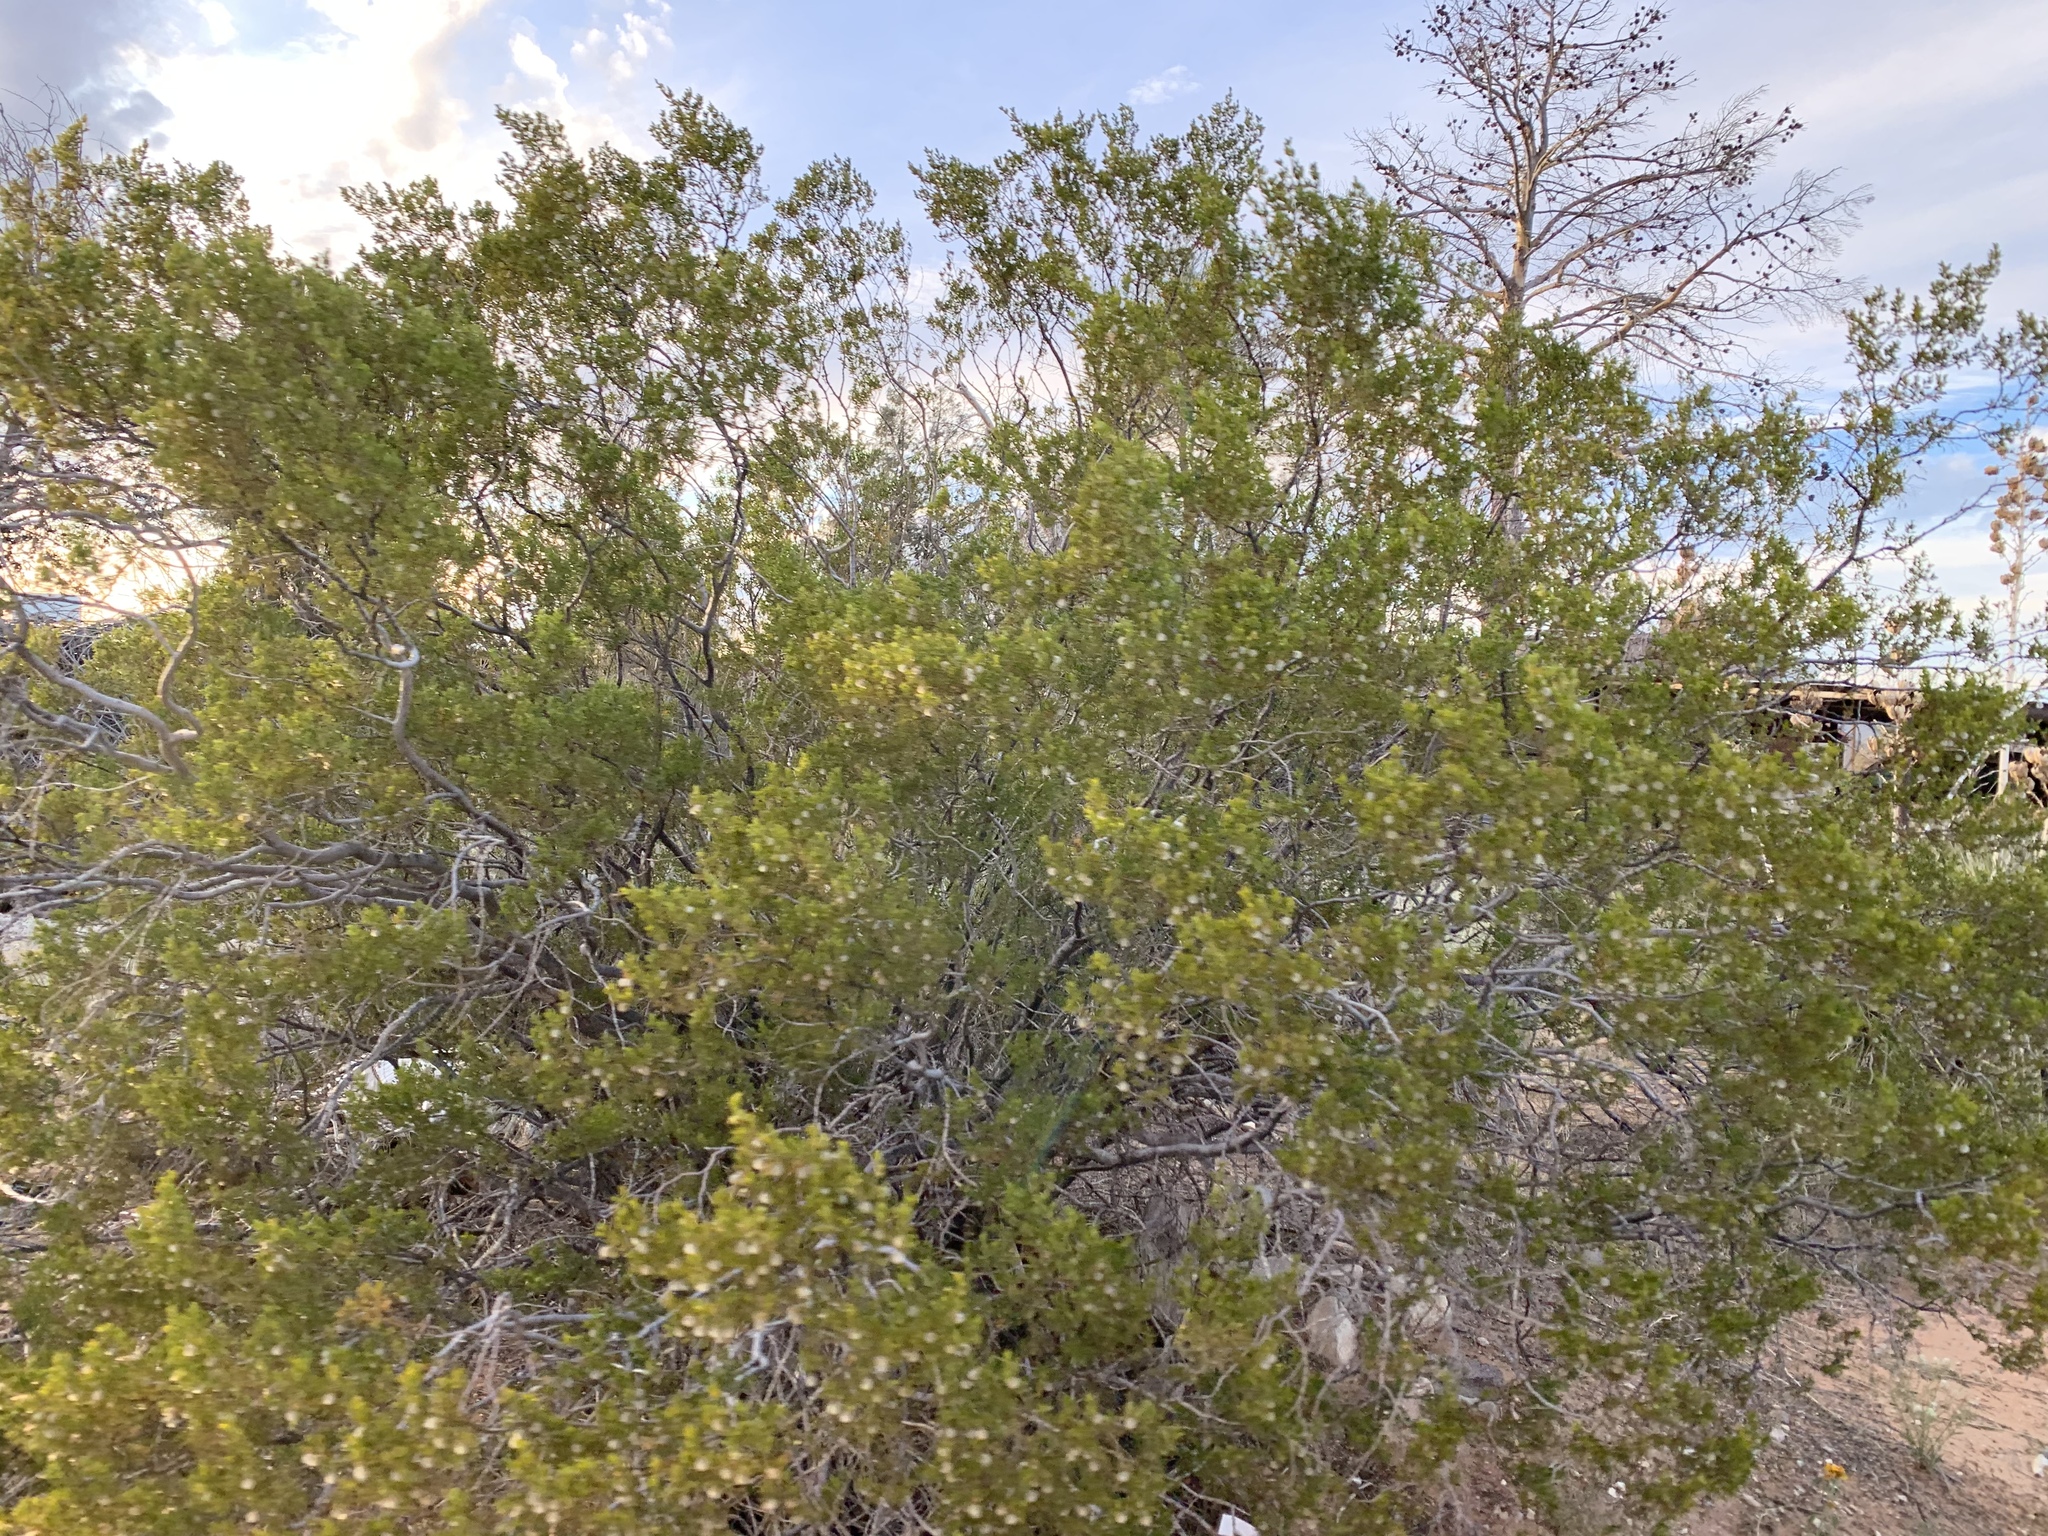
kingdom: Plantae
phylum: Tracheophyta
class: Magnoliopsida
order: Zygophyllales
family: Zygophyllaceae
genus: Larrea
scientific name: Larrea tridentata
